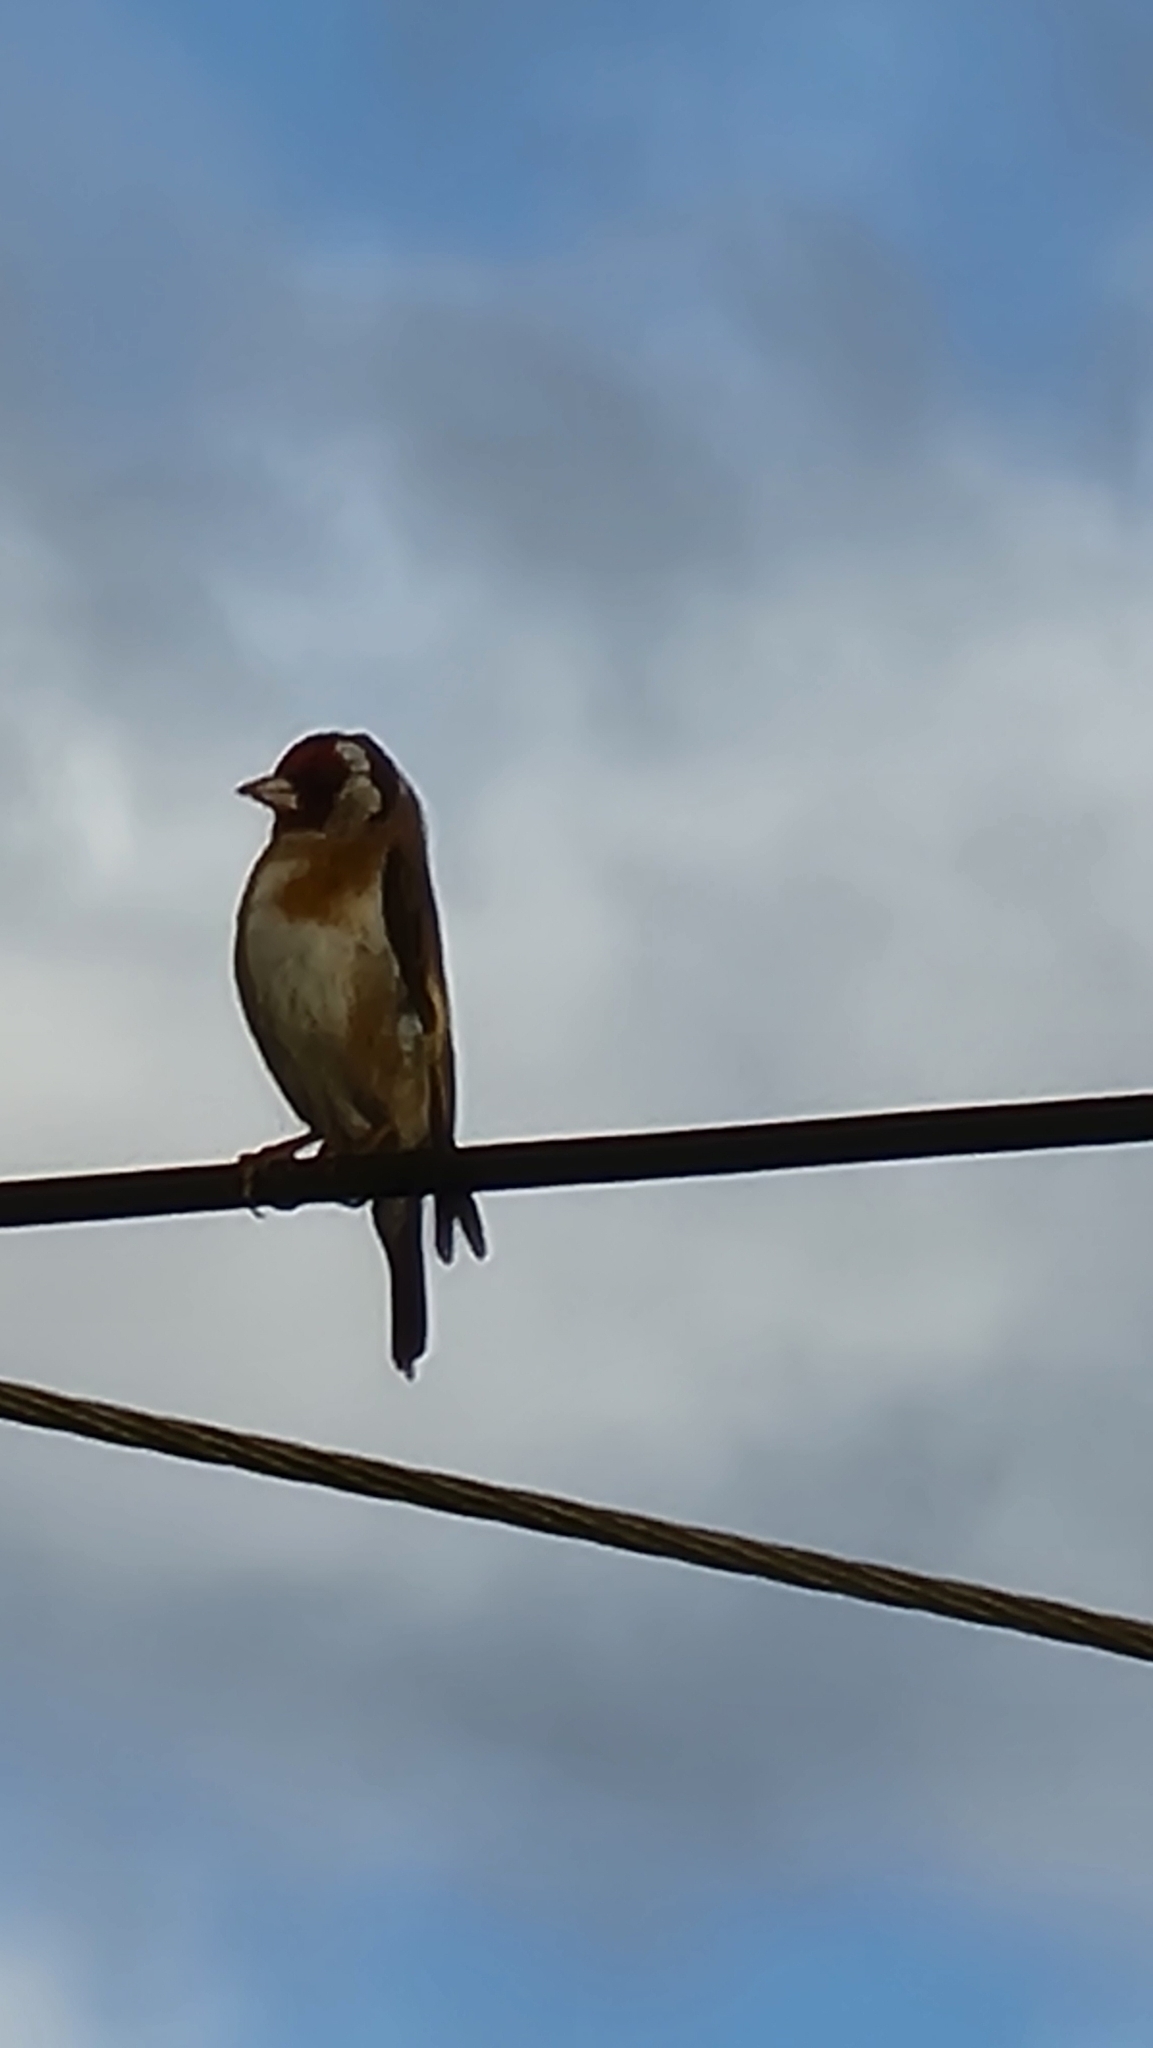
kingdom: Animalia
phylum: Chordata
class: Aves
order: Passeriformes
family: Fringillidae
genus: Carduelis
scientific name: Carduelis carduelis
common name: European goldfinch
